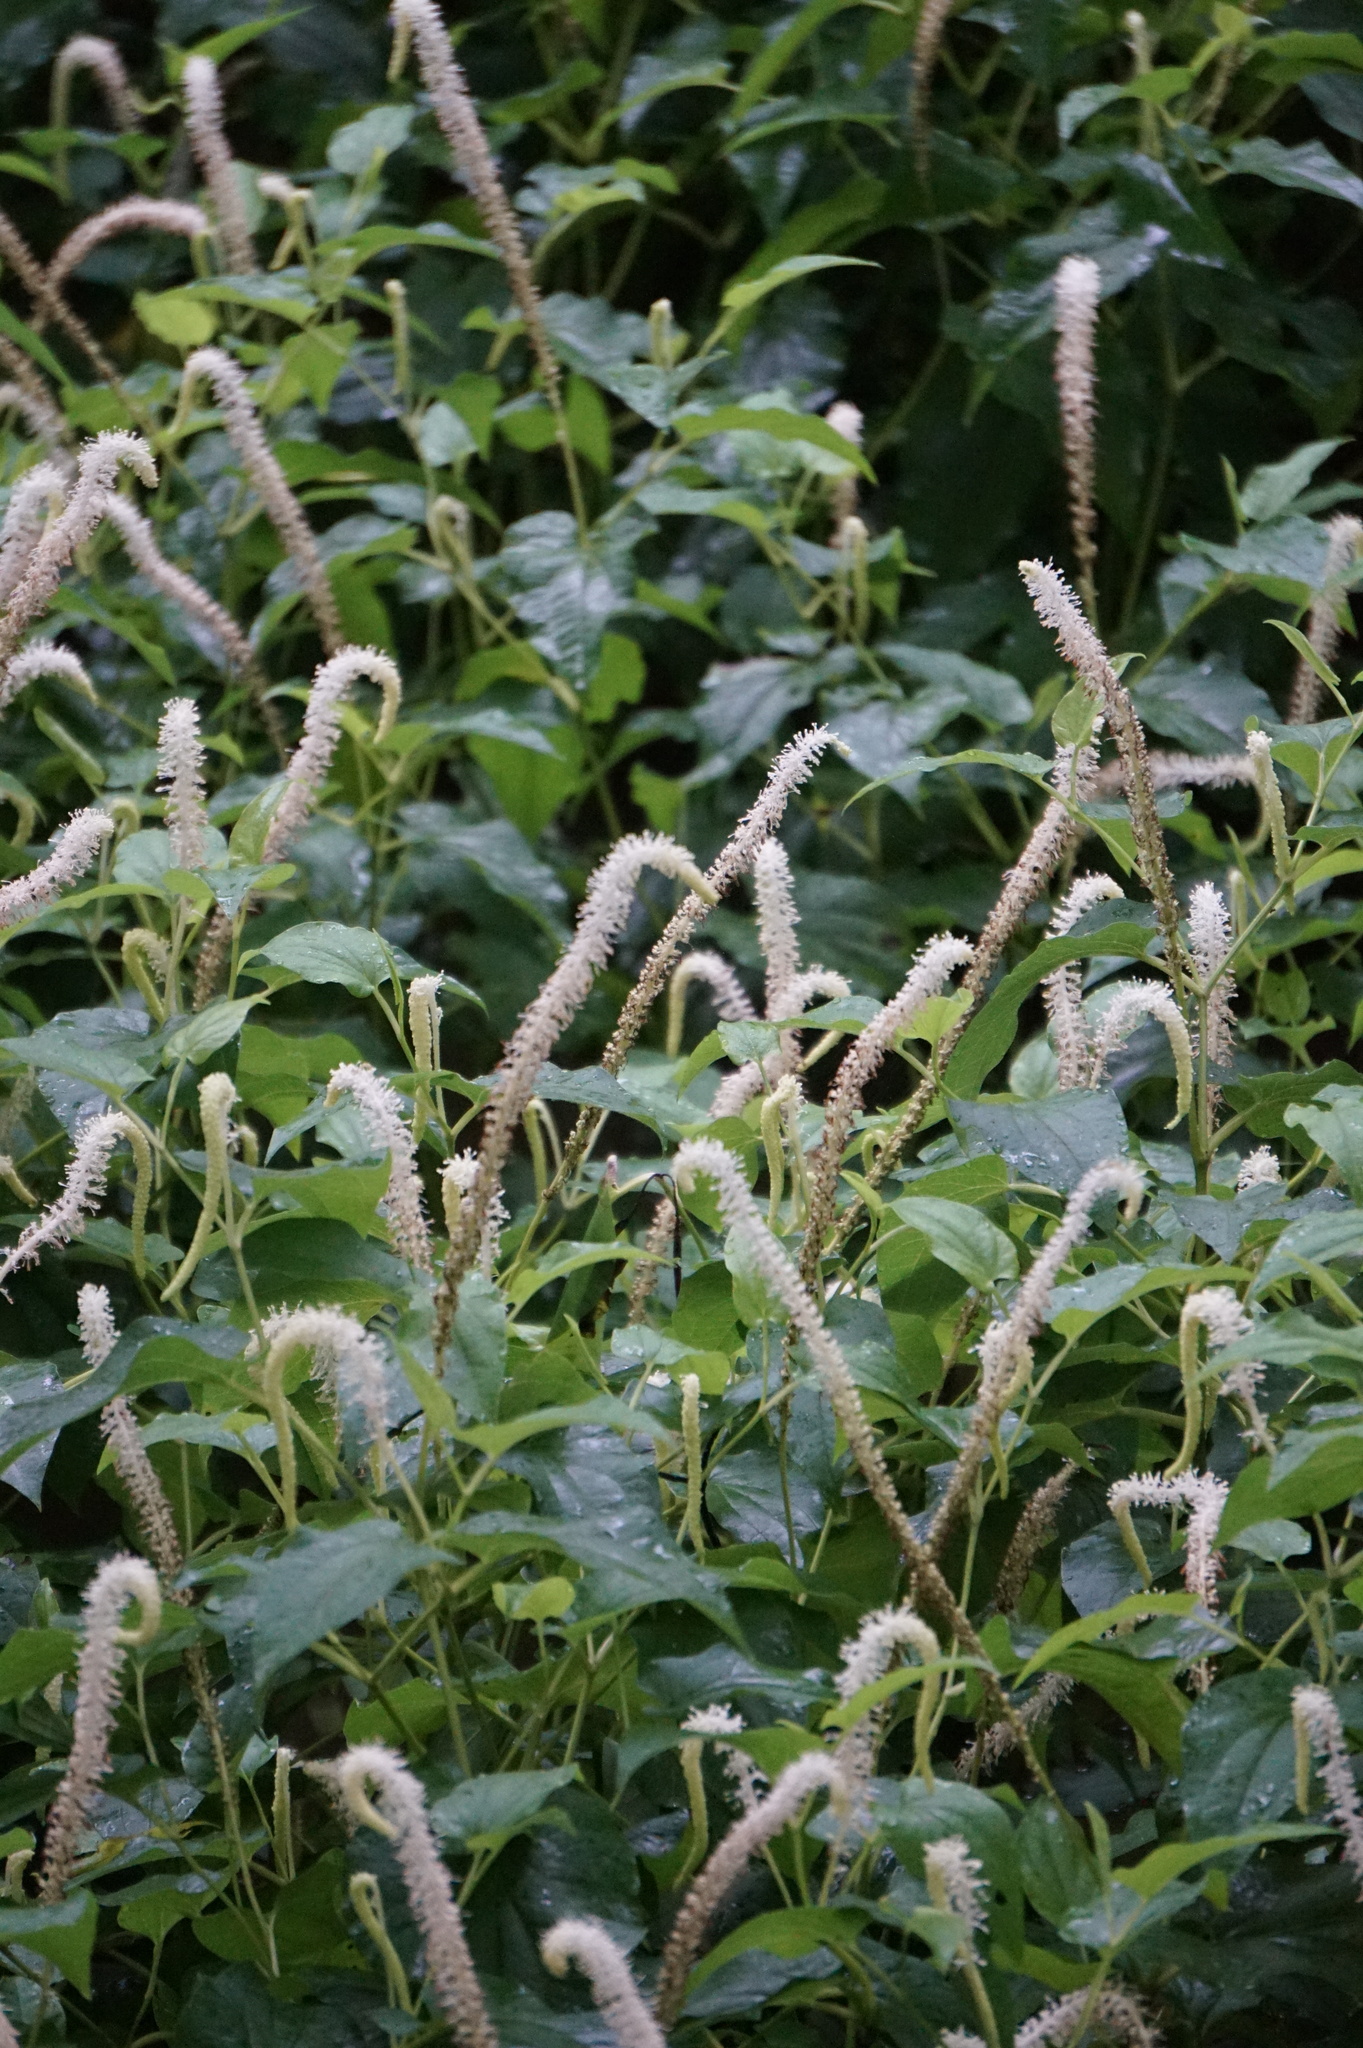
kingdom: Plantae
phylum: Tracheophyta
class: Magnoliopsida
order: Piperales
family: Saururaceae
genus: Saururus
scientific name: Saururus cernuus
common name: Lizard's-tail
